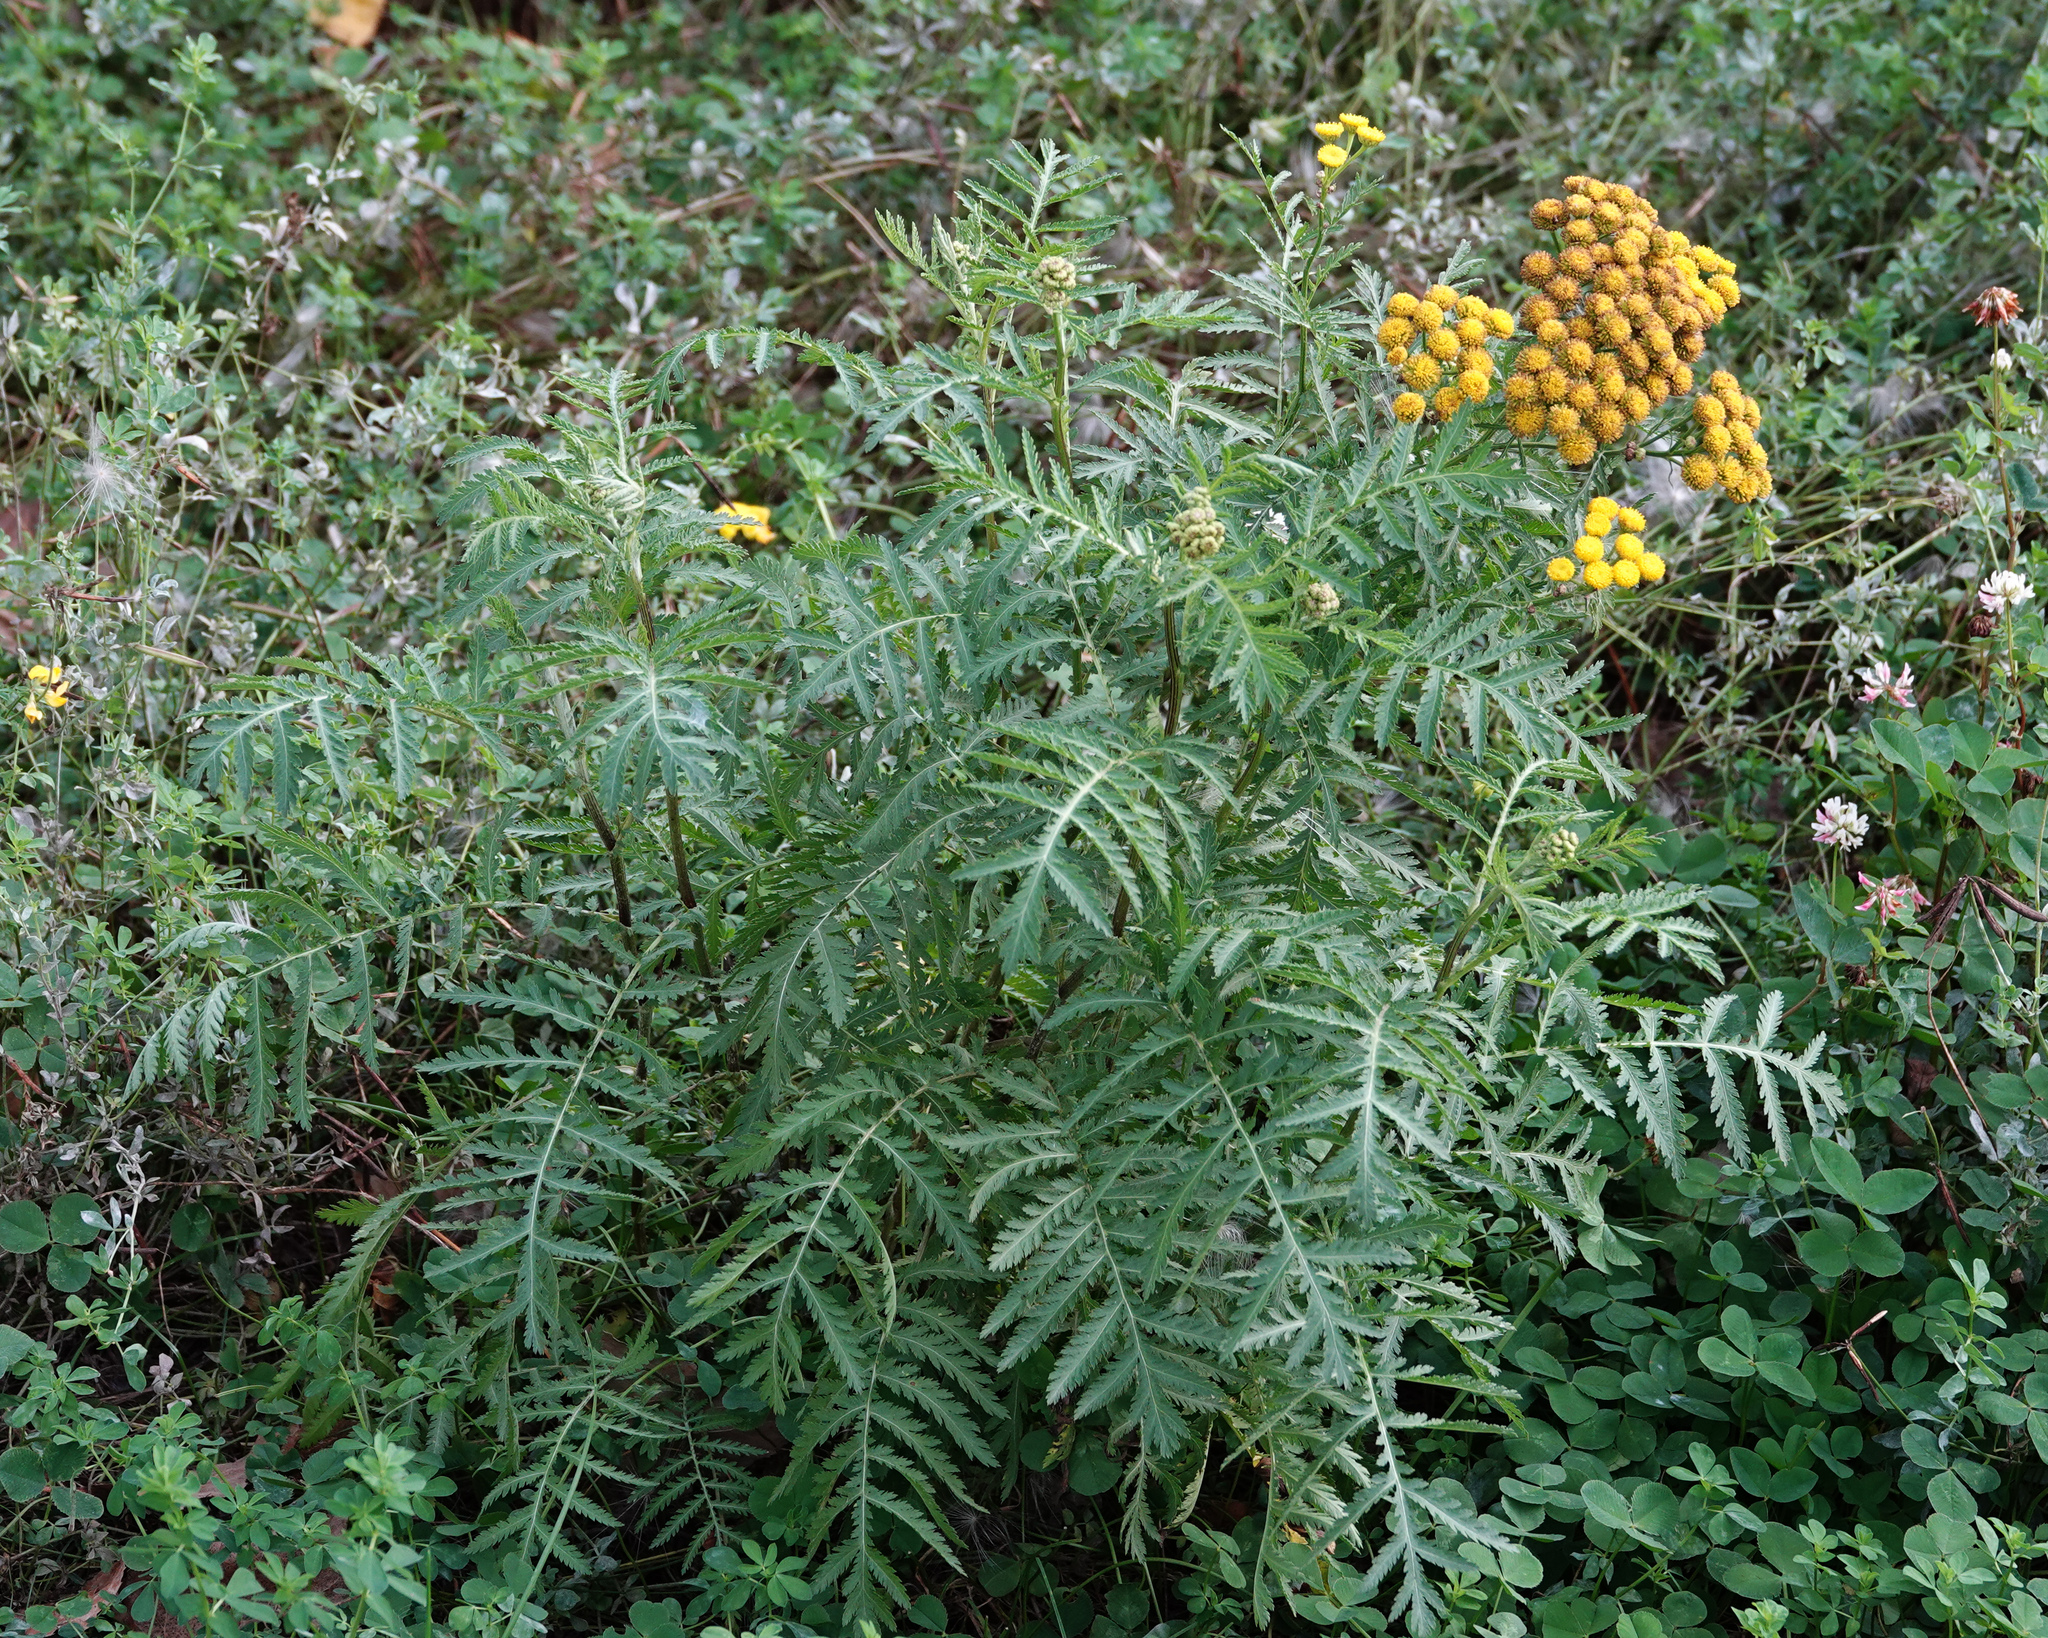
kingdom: Plantae
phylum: Tracheophyta
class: Magnoliopsida
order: Asterales
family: Asteraceae
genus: Tanacetum
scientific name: Tanacetum vulgare
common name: Common tansy
